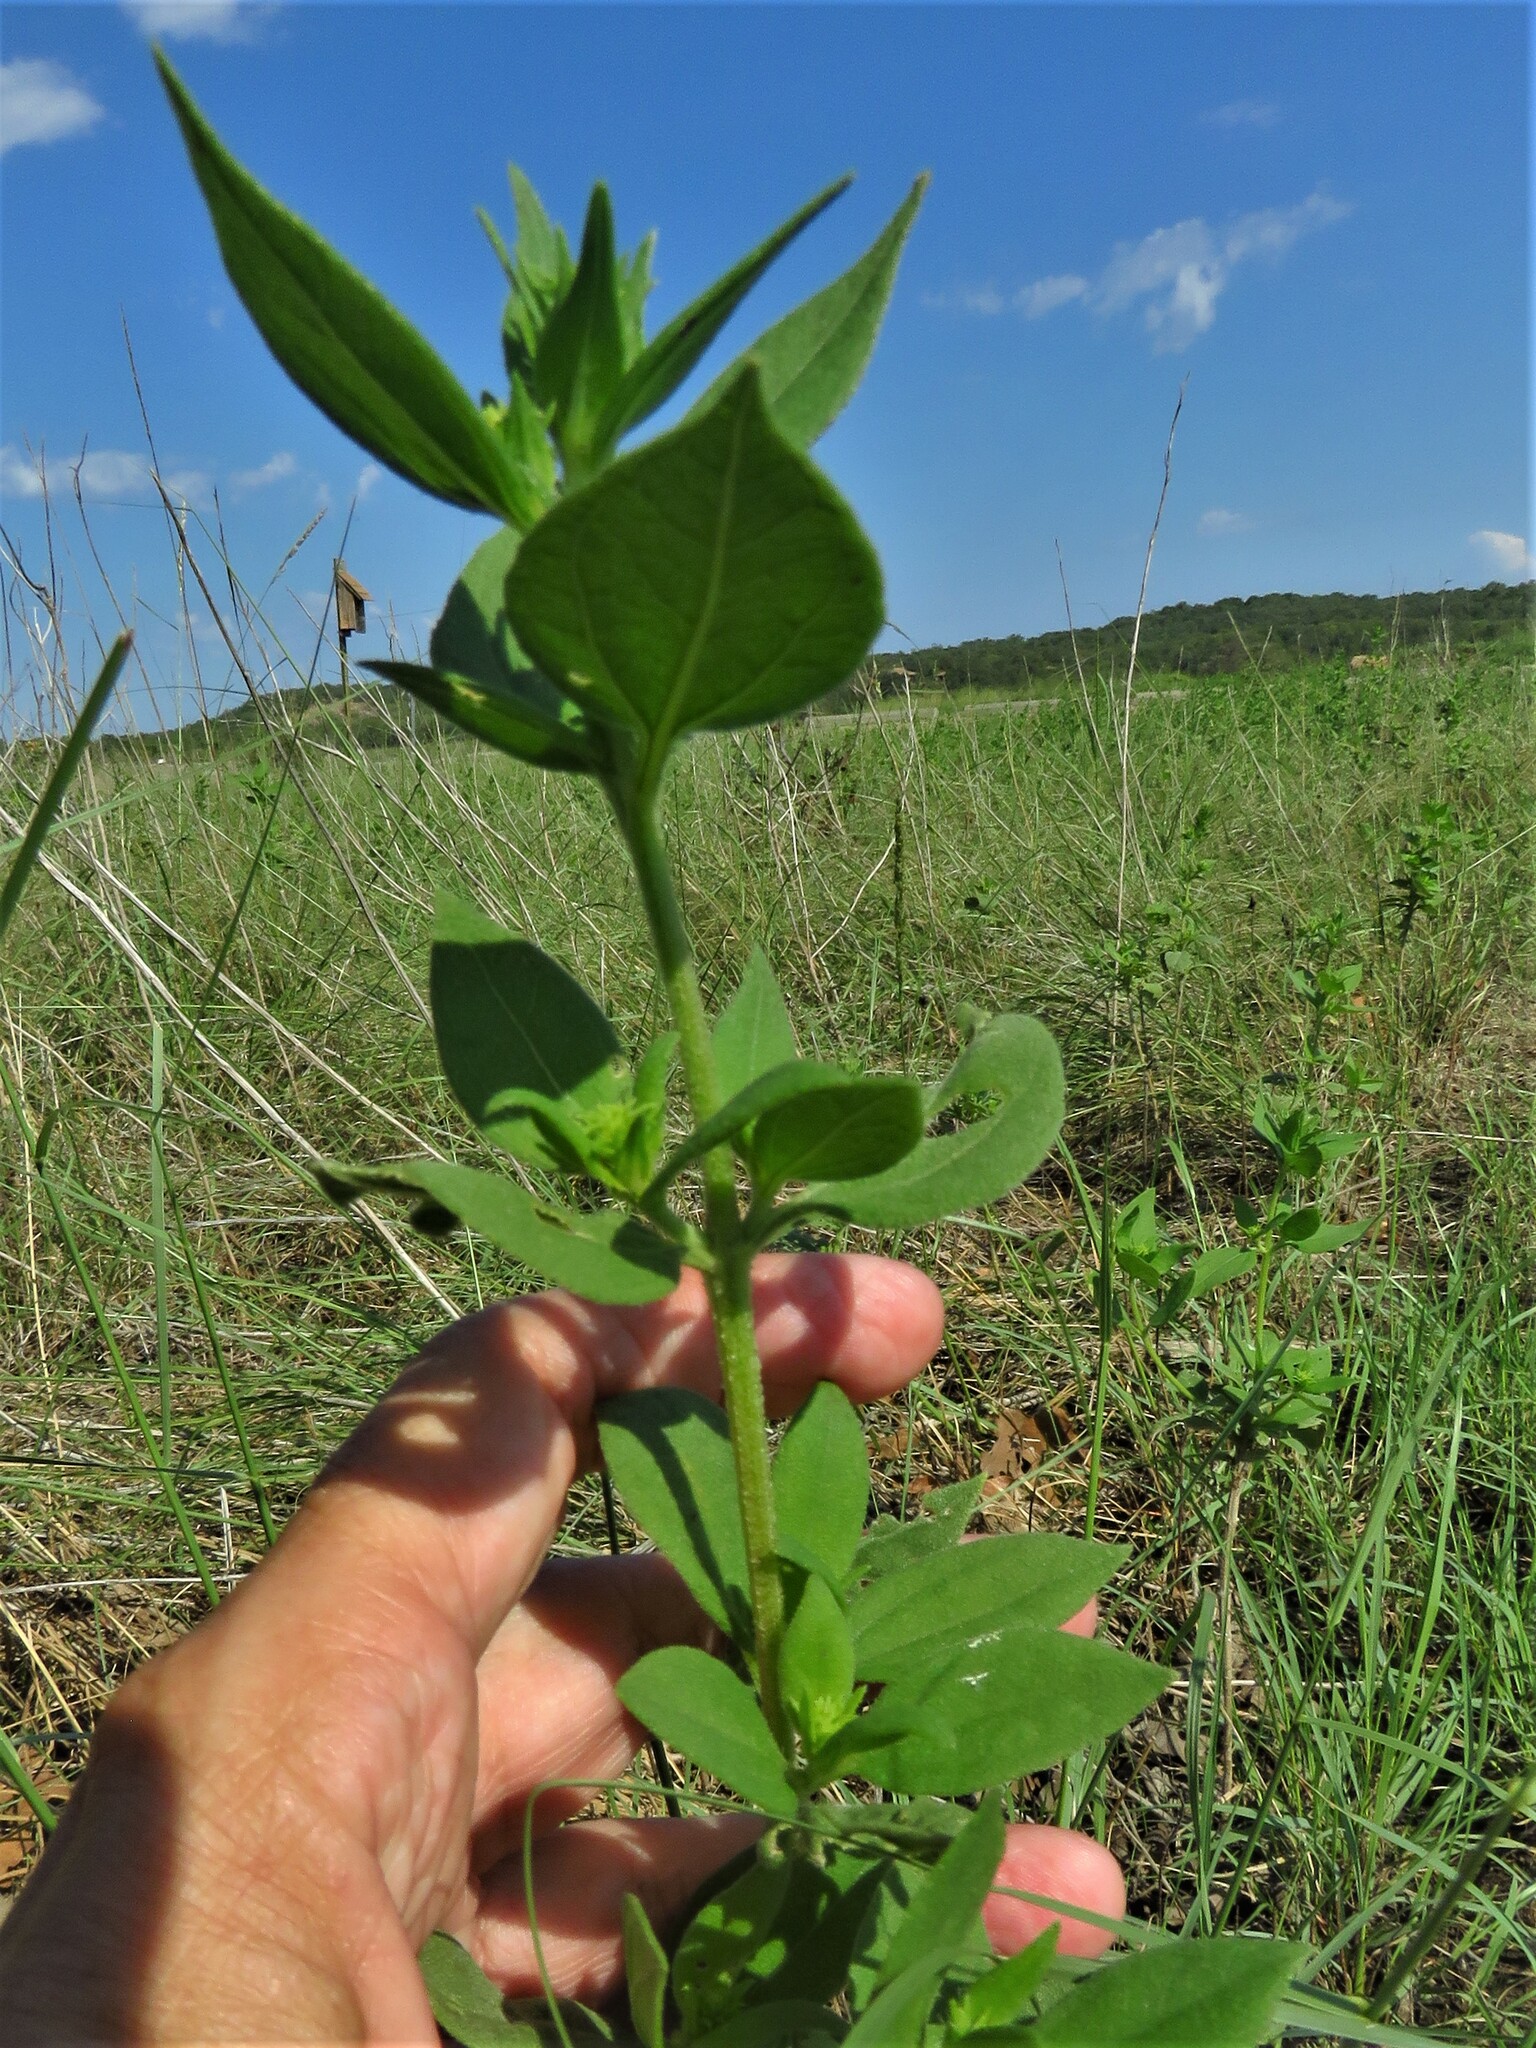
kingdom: Plantae
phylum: Tracheophyta
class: Magnoliopsida
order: Asterales
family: Asteraceae
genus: Iva
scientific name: Iva annua
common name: Marsh-elder
